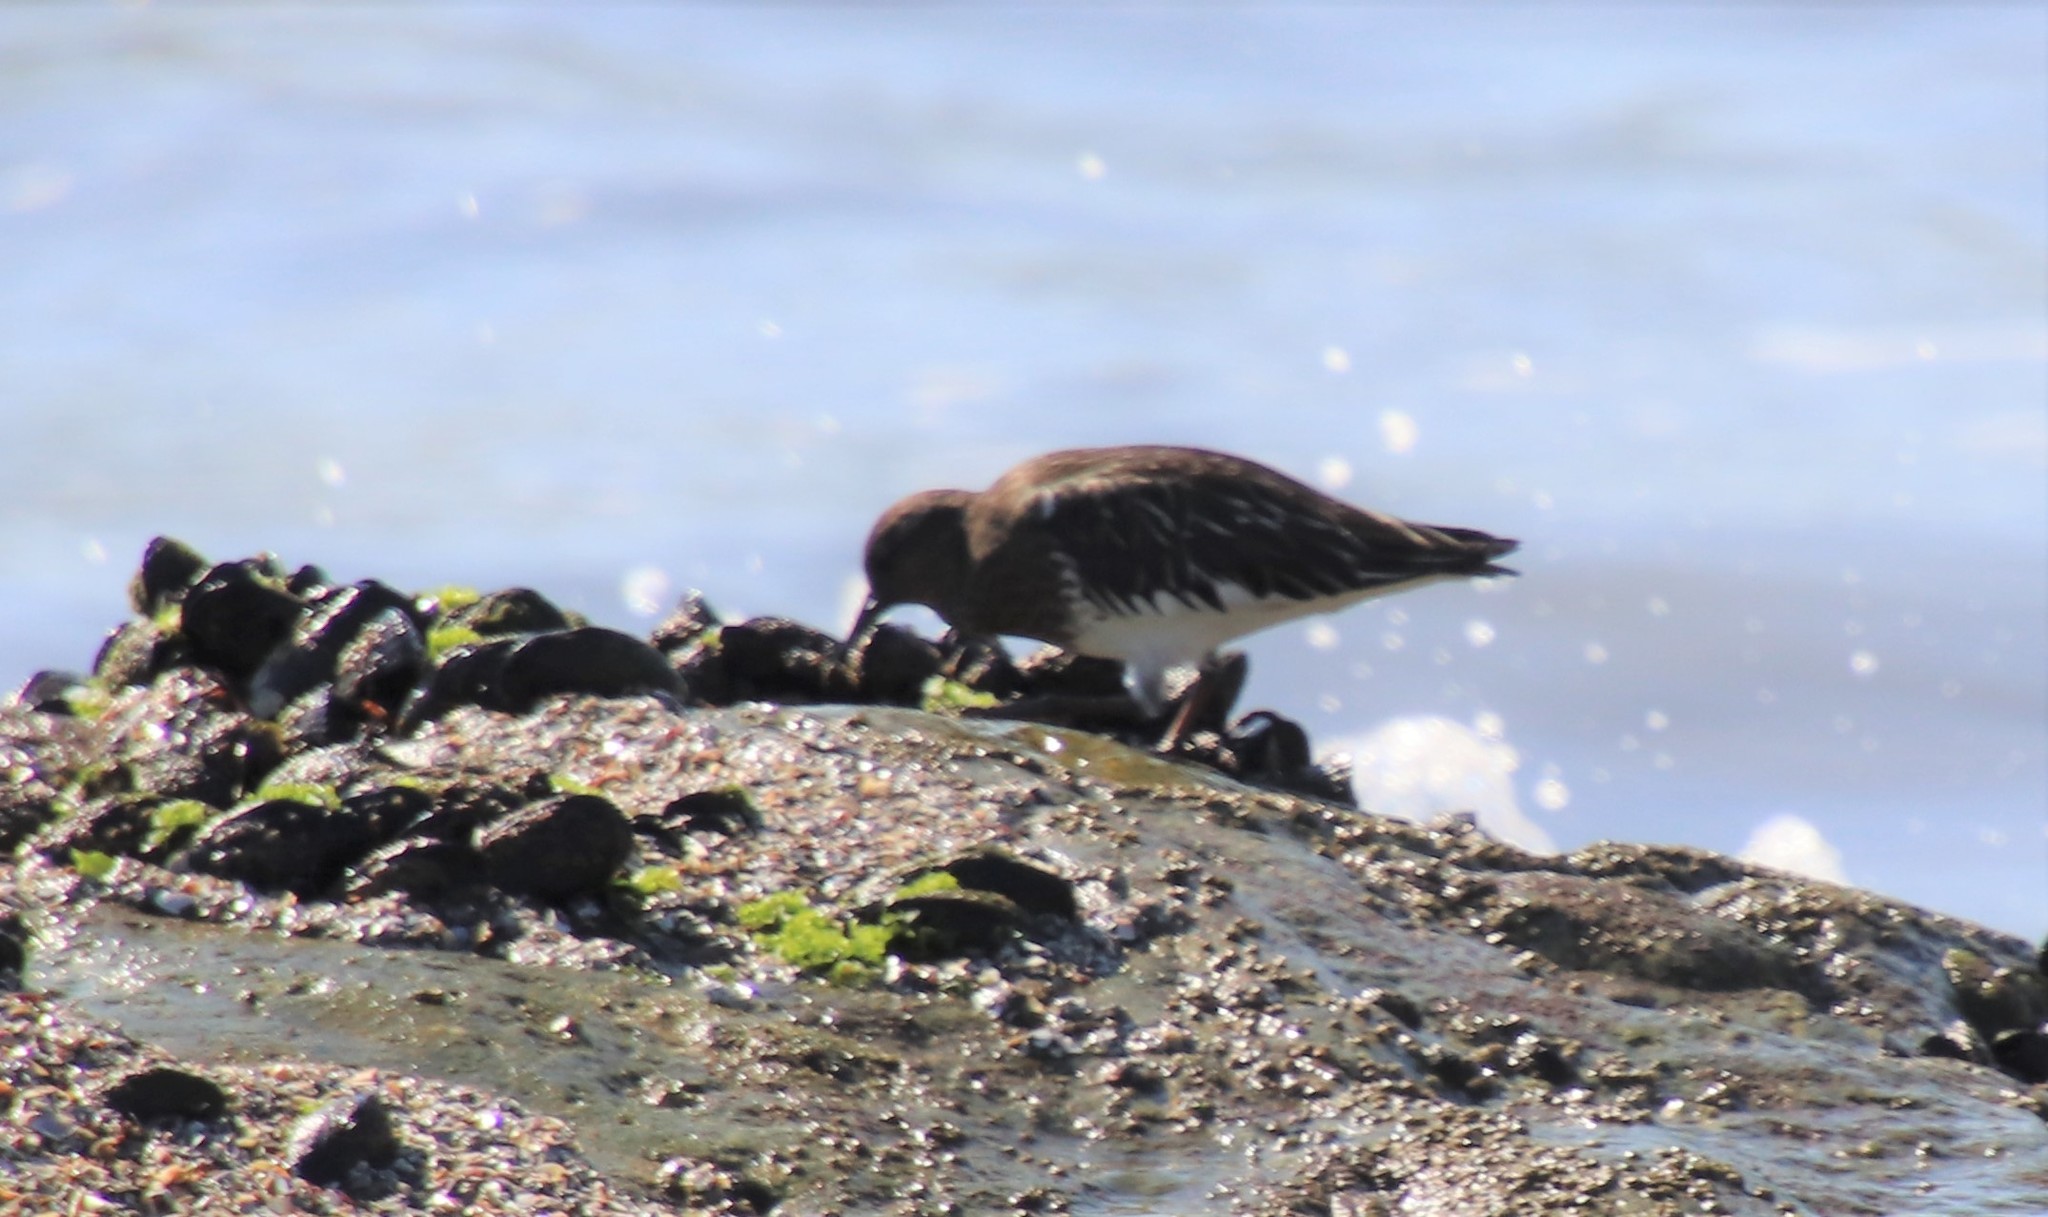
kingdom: Animalia
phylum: Chordata
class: Aves
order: Charadriiformes
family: Scolopacidae
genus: Arenaria
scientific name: Arenaria melanocephala
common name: Black turnstone
